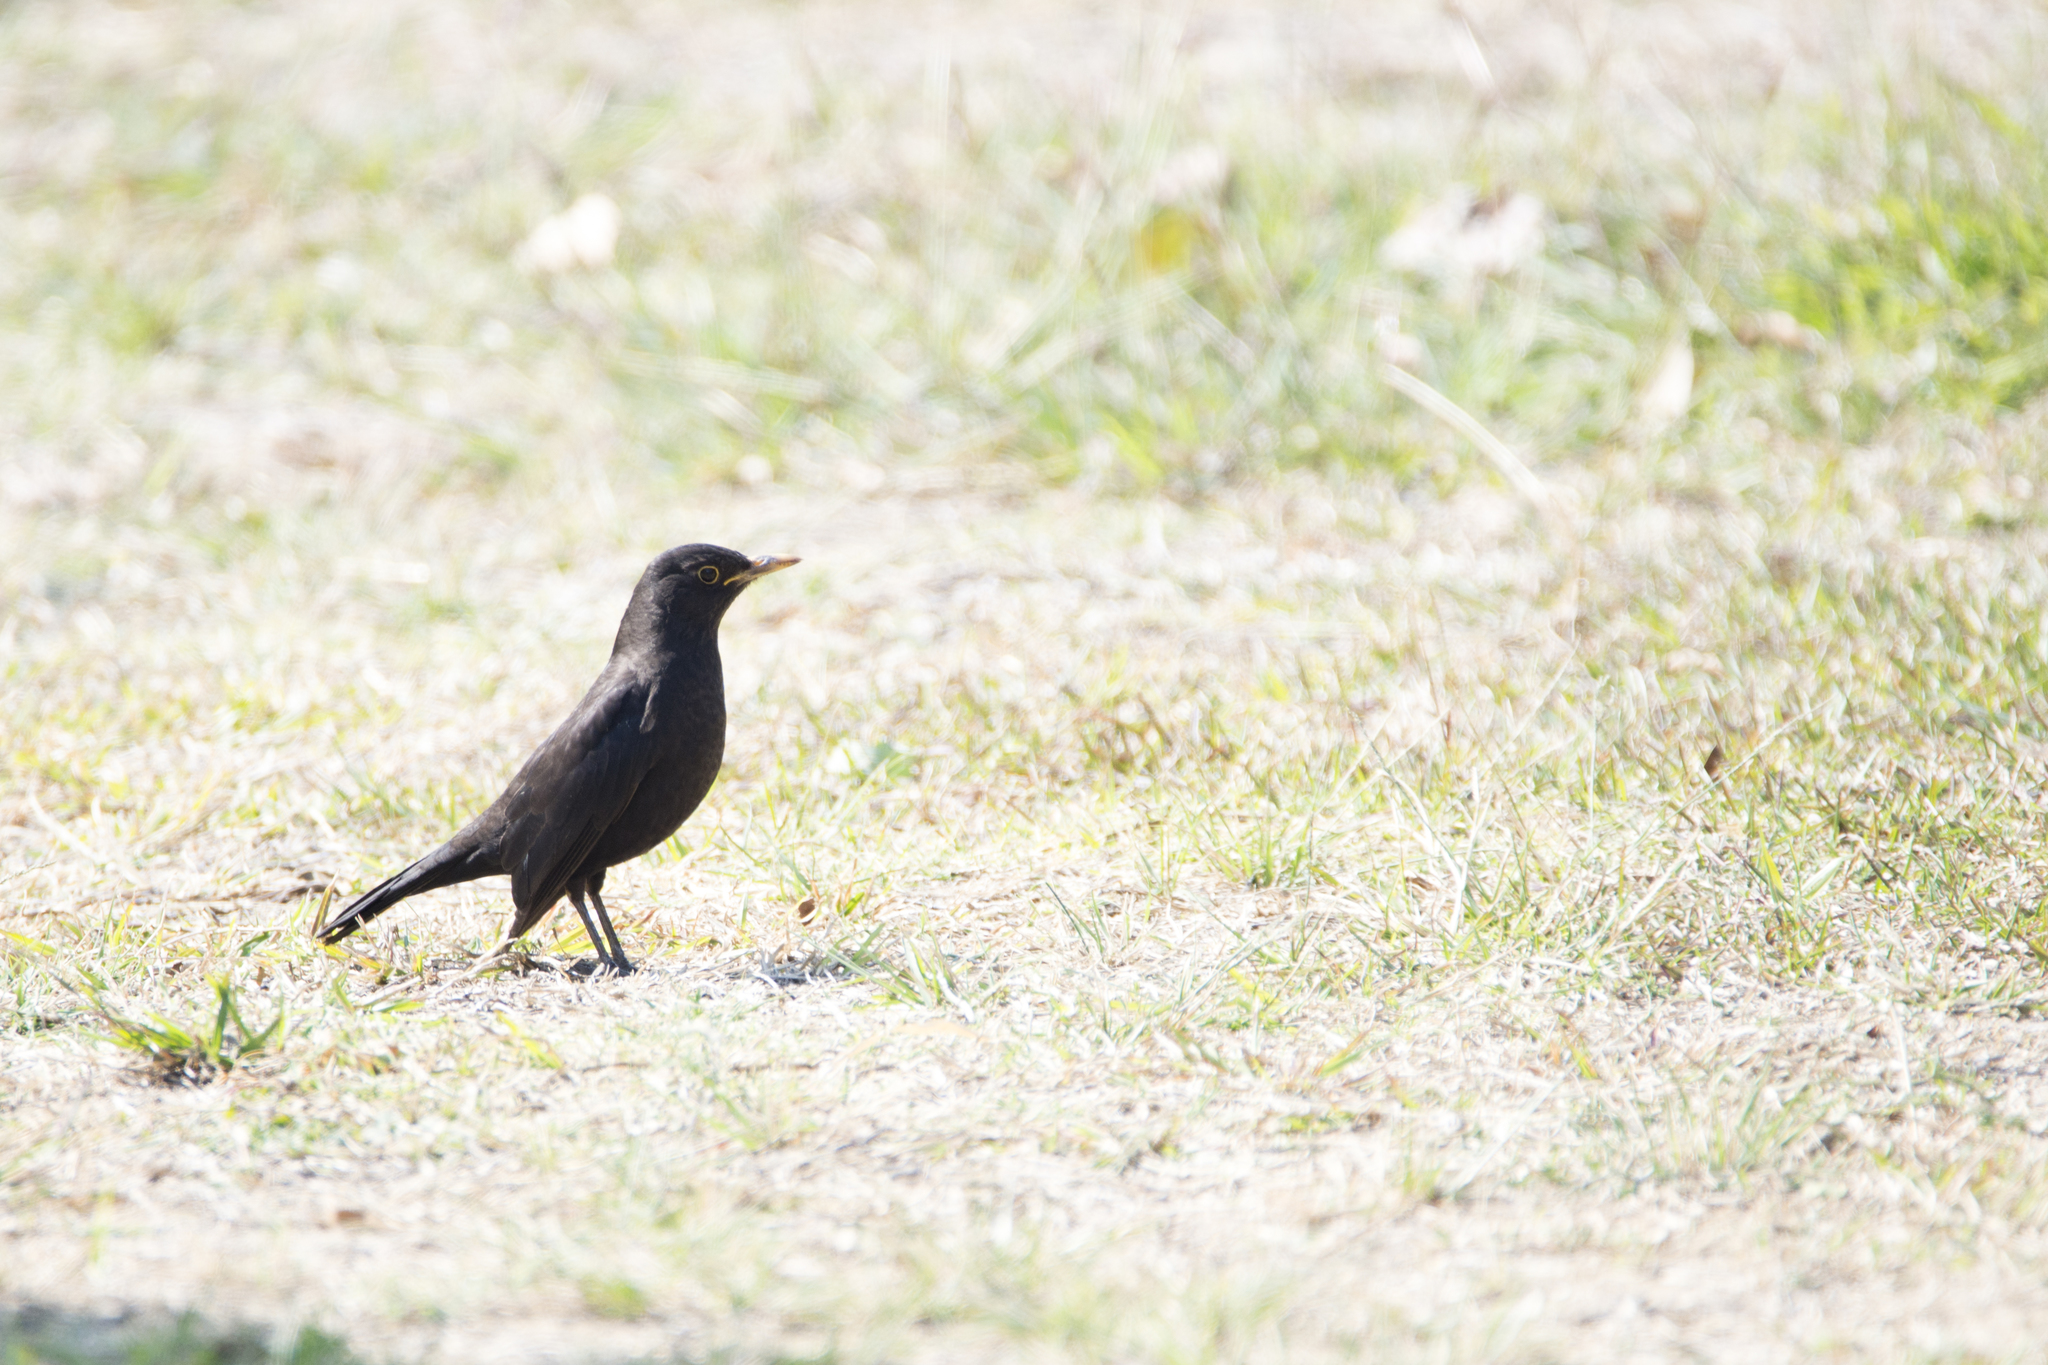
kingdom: Animalia
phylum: Chordata
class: Aves
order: Passeriformes
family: Turdidae
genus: Turdus
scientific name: Turdus mandarinus
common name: Chinese blackbird
